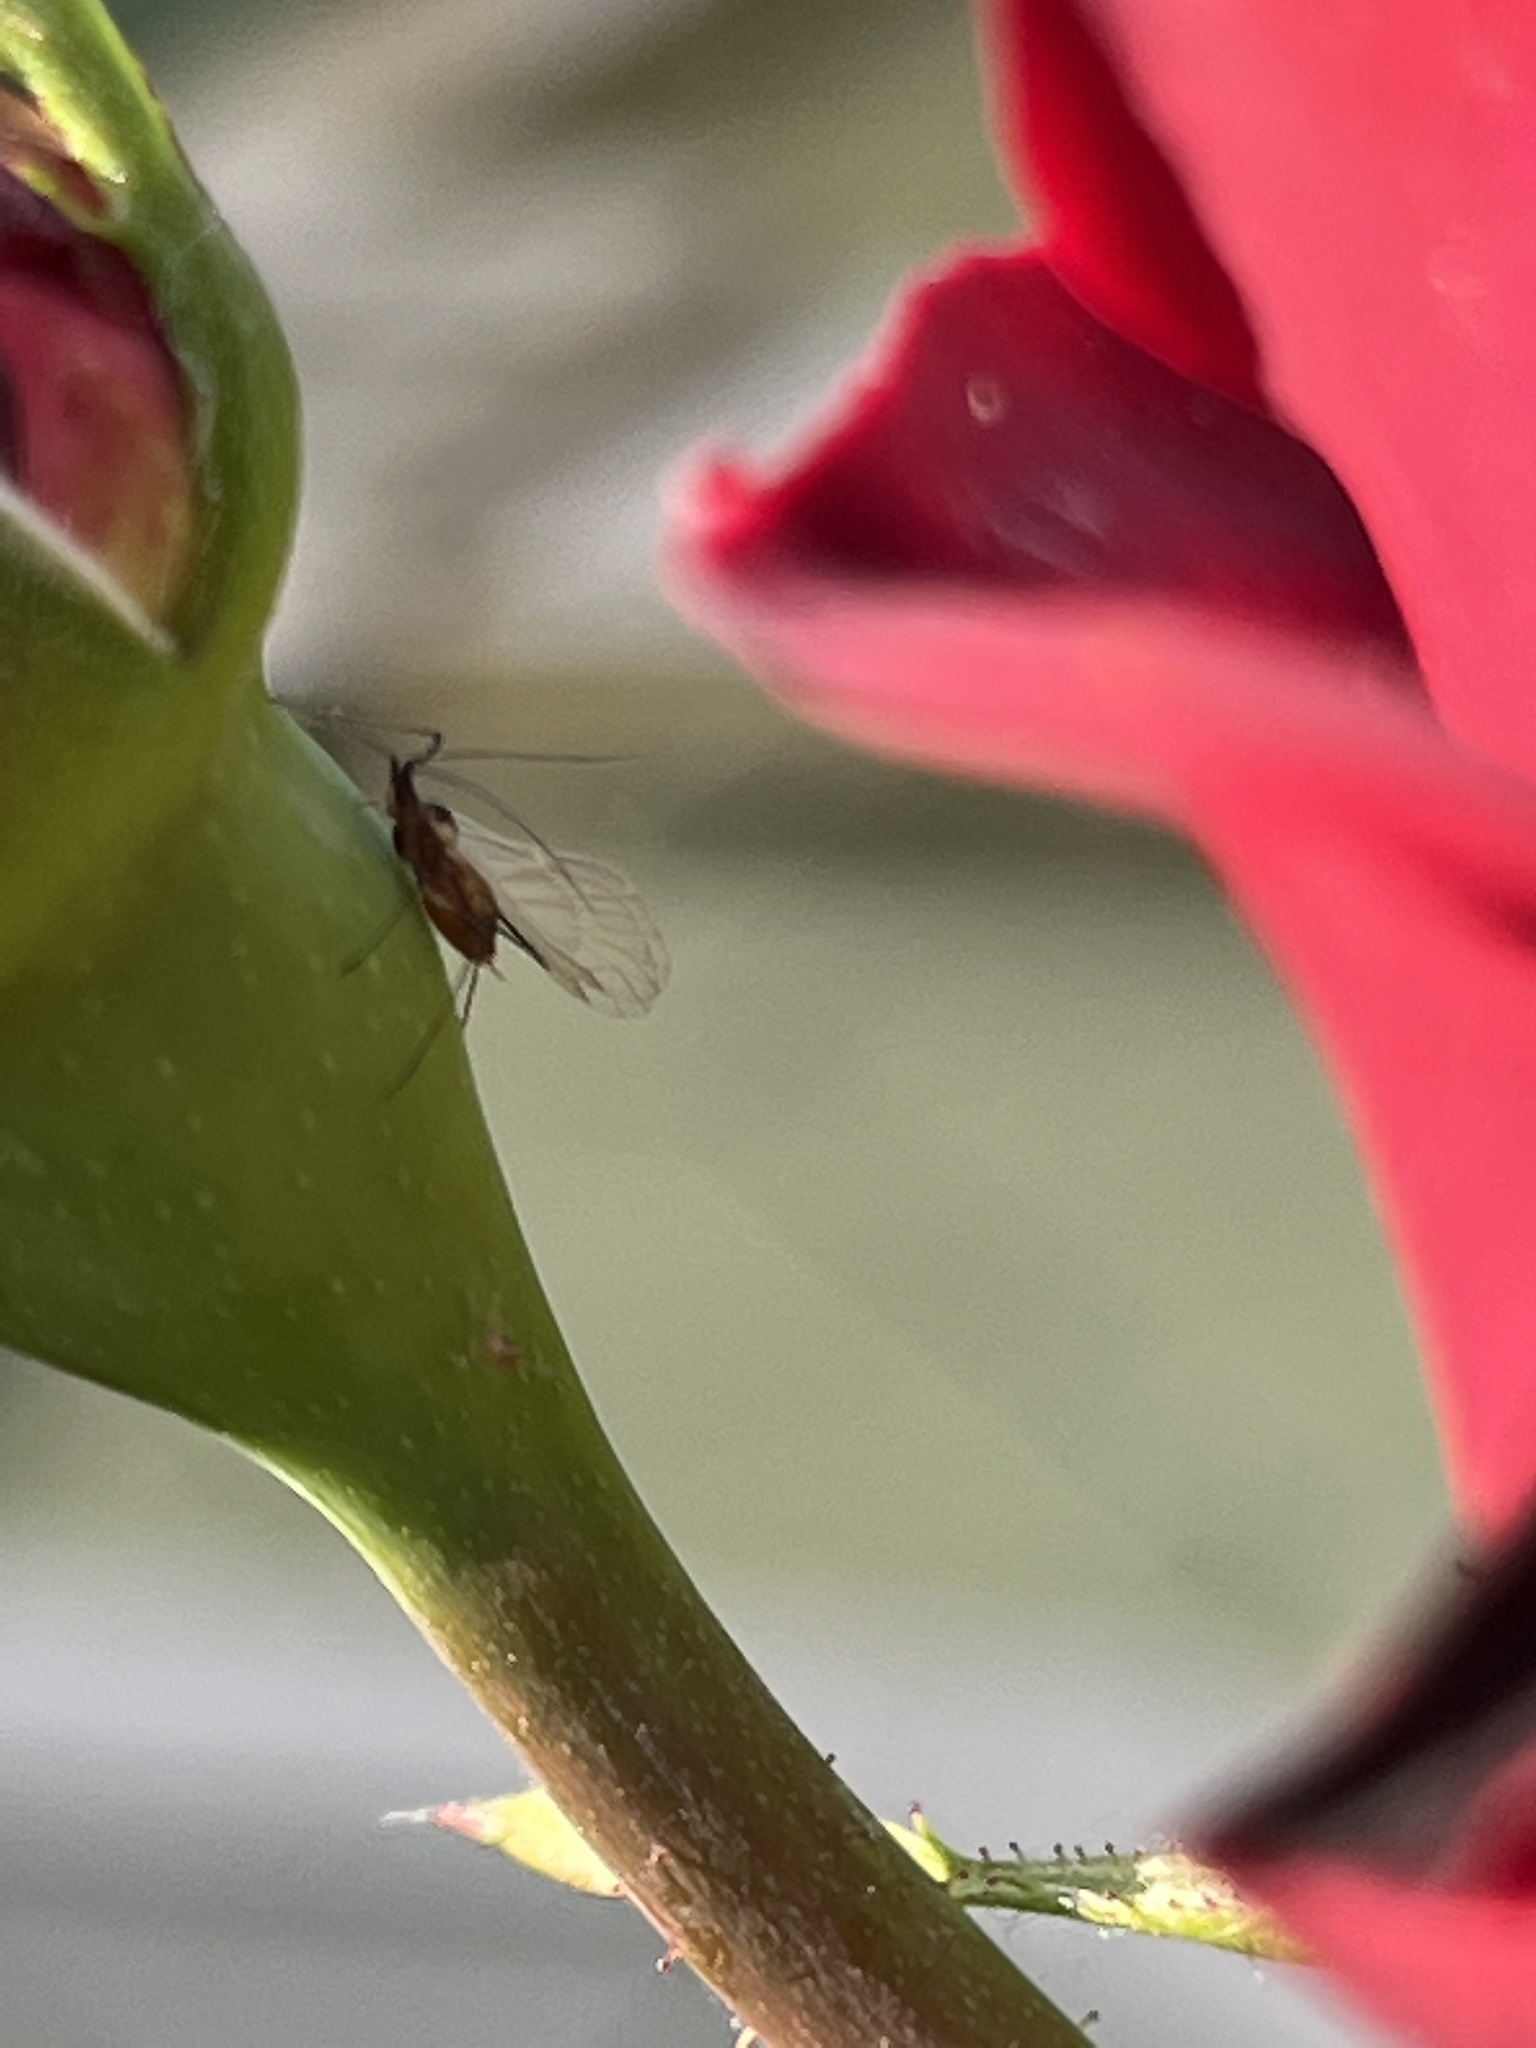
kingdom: Animalia
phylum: Arthropoda
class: Insecta
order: Hemiptera
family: Aphididae
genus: Macrosiphum
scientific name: Macrosiphum rosae
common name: Rose aphid
